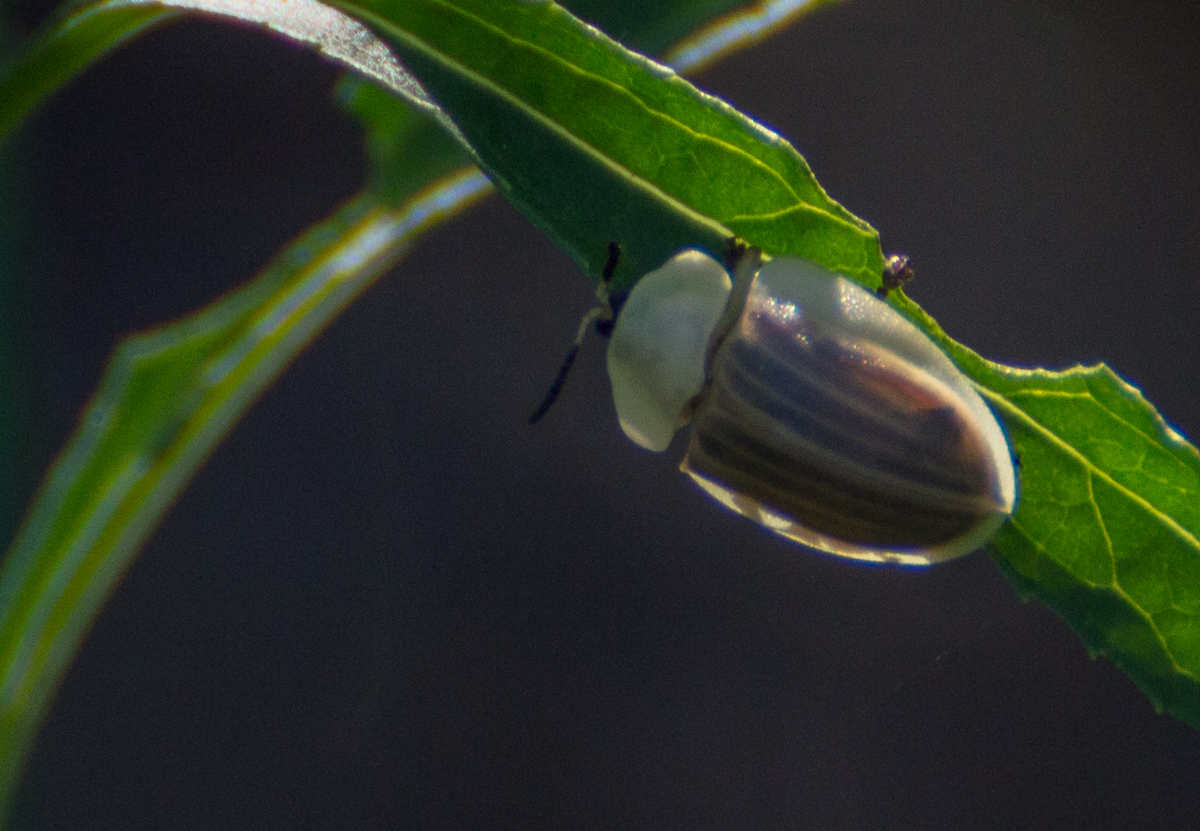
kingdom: Animalia
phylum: Arthropoda
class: Insecta
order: Coleoptera
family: Chrysomelidae
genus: Anacassis
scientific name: Anacassis fuscata
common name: Seepwillow flea beetle
